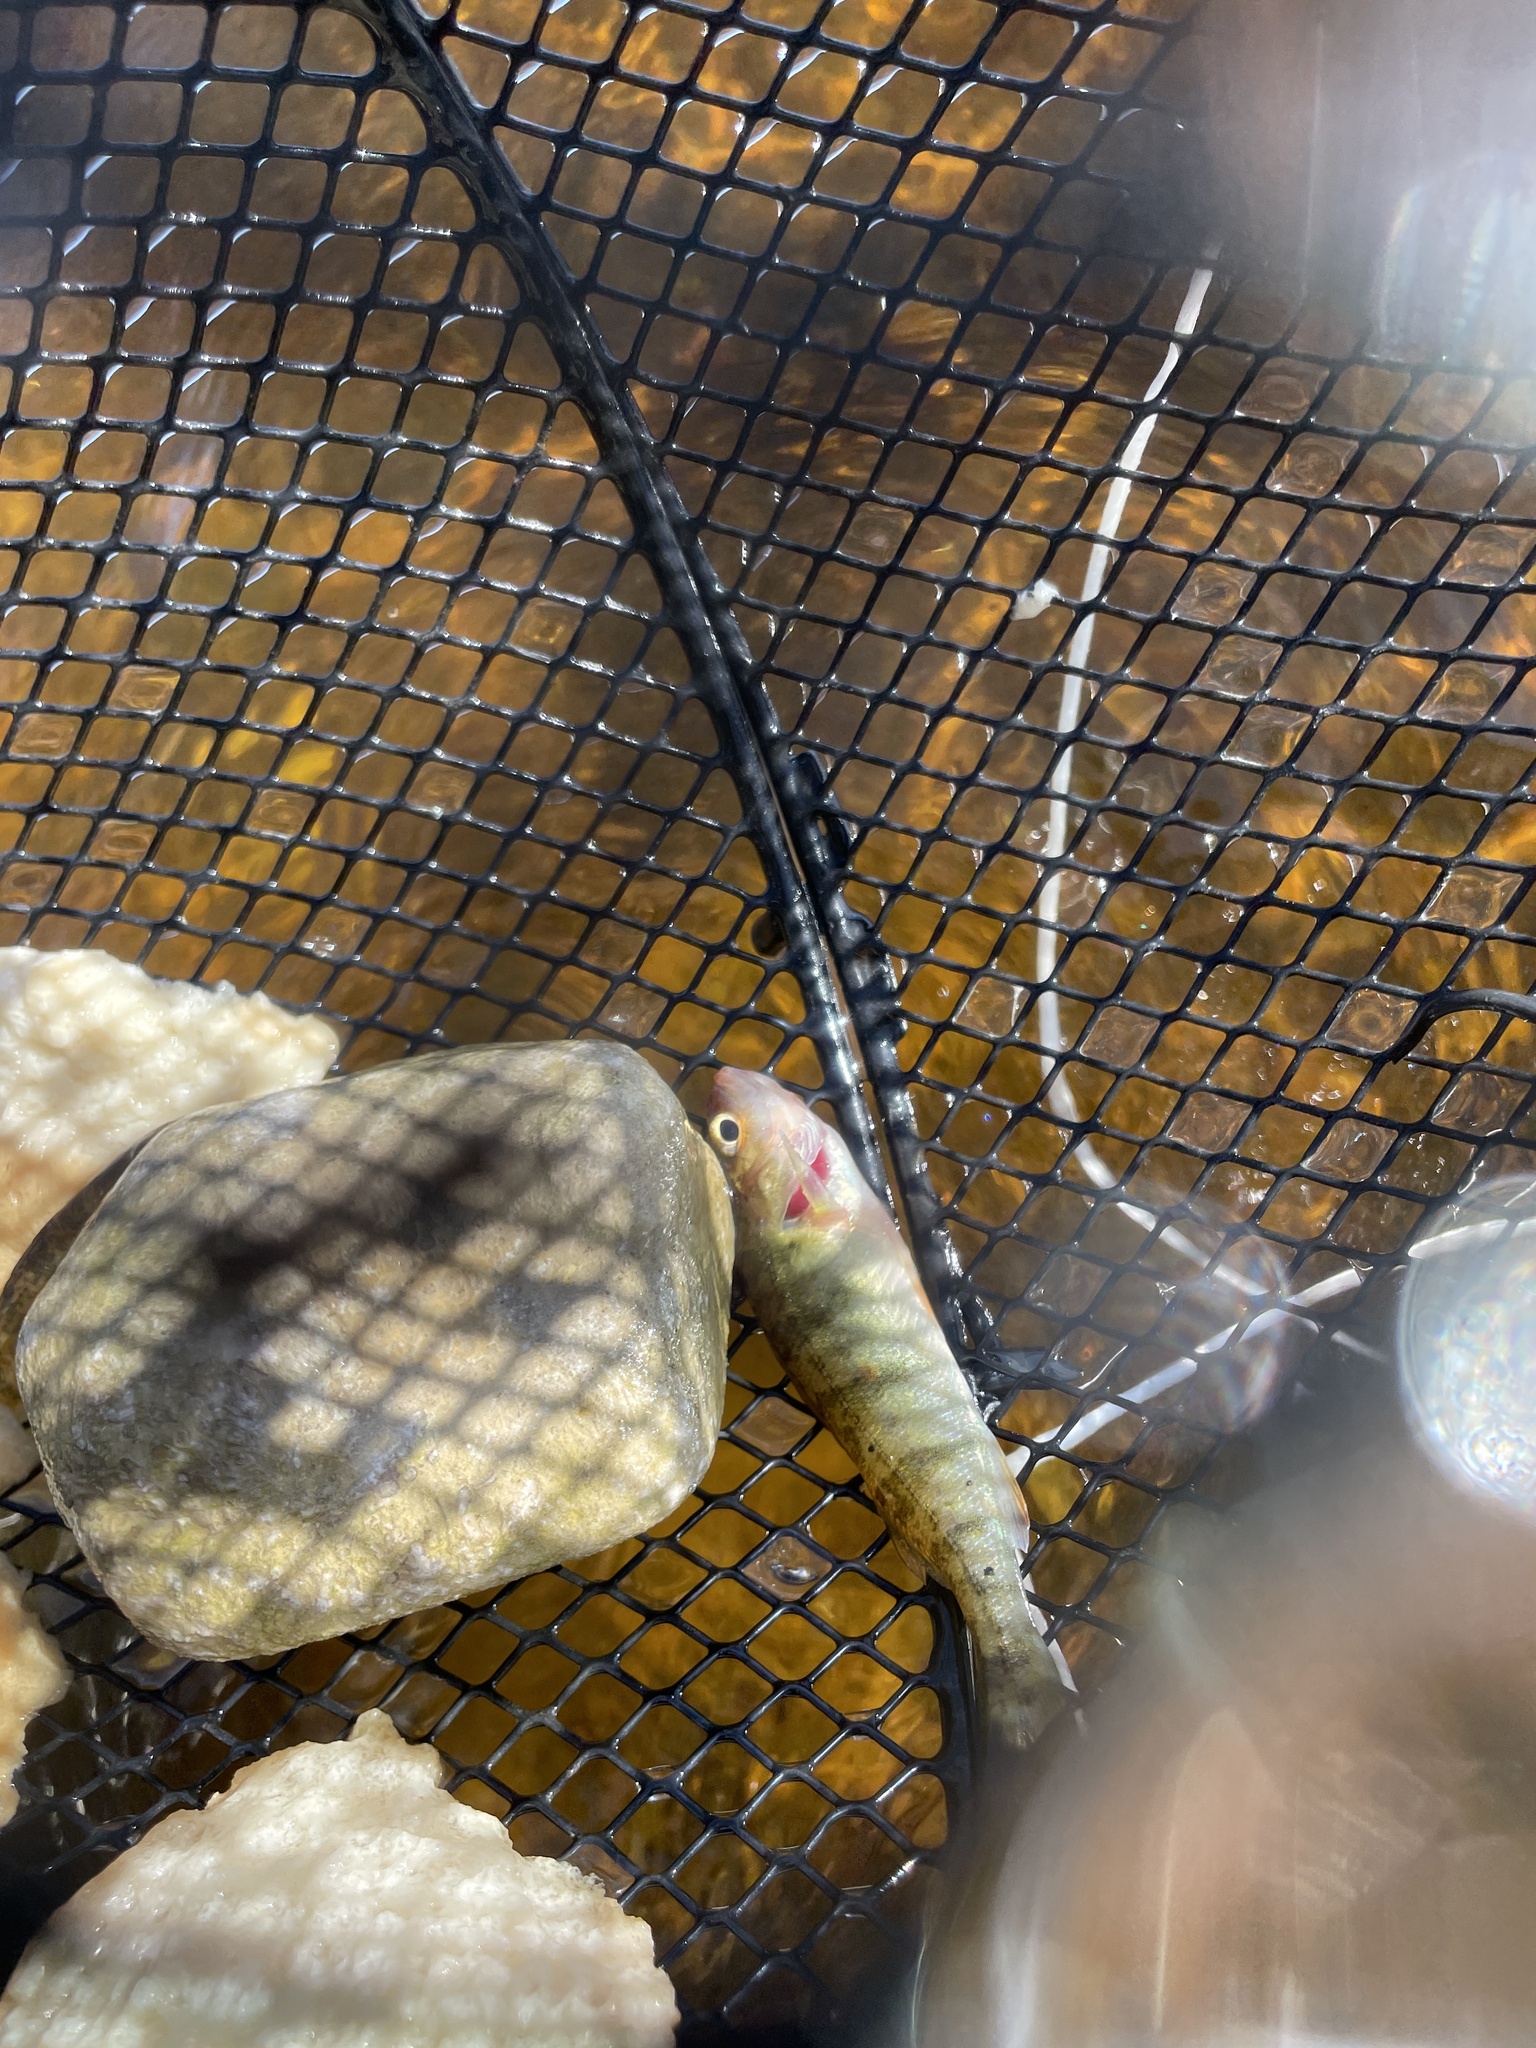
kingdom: Animalia
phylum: Chordata
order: Perciformes
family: Percidae
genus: Perca
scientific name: Perca flavescens
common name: Yellow perch
